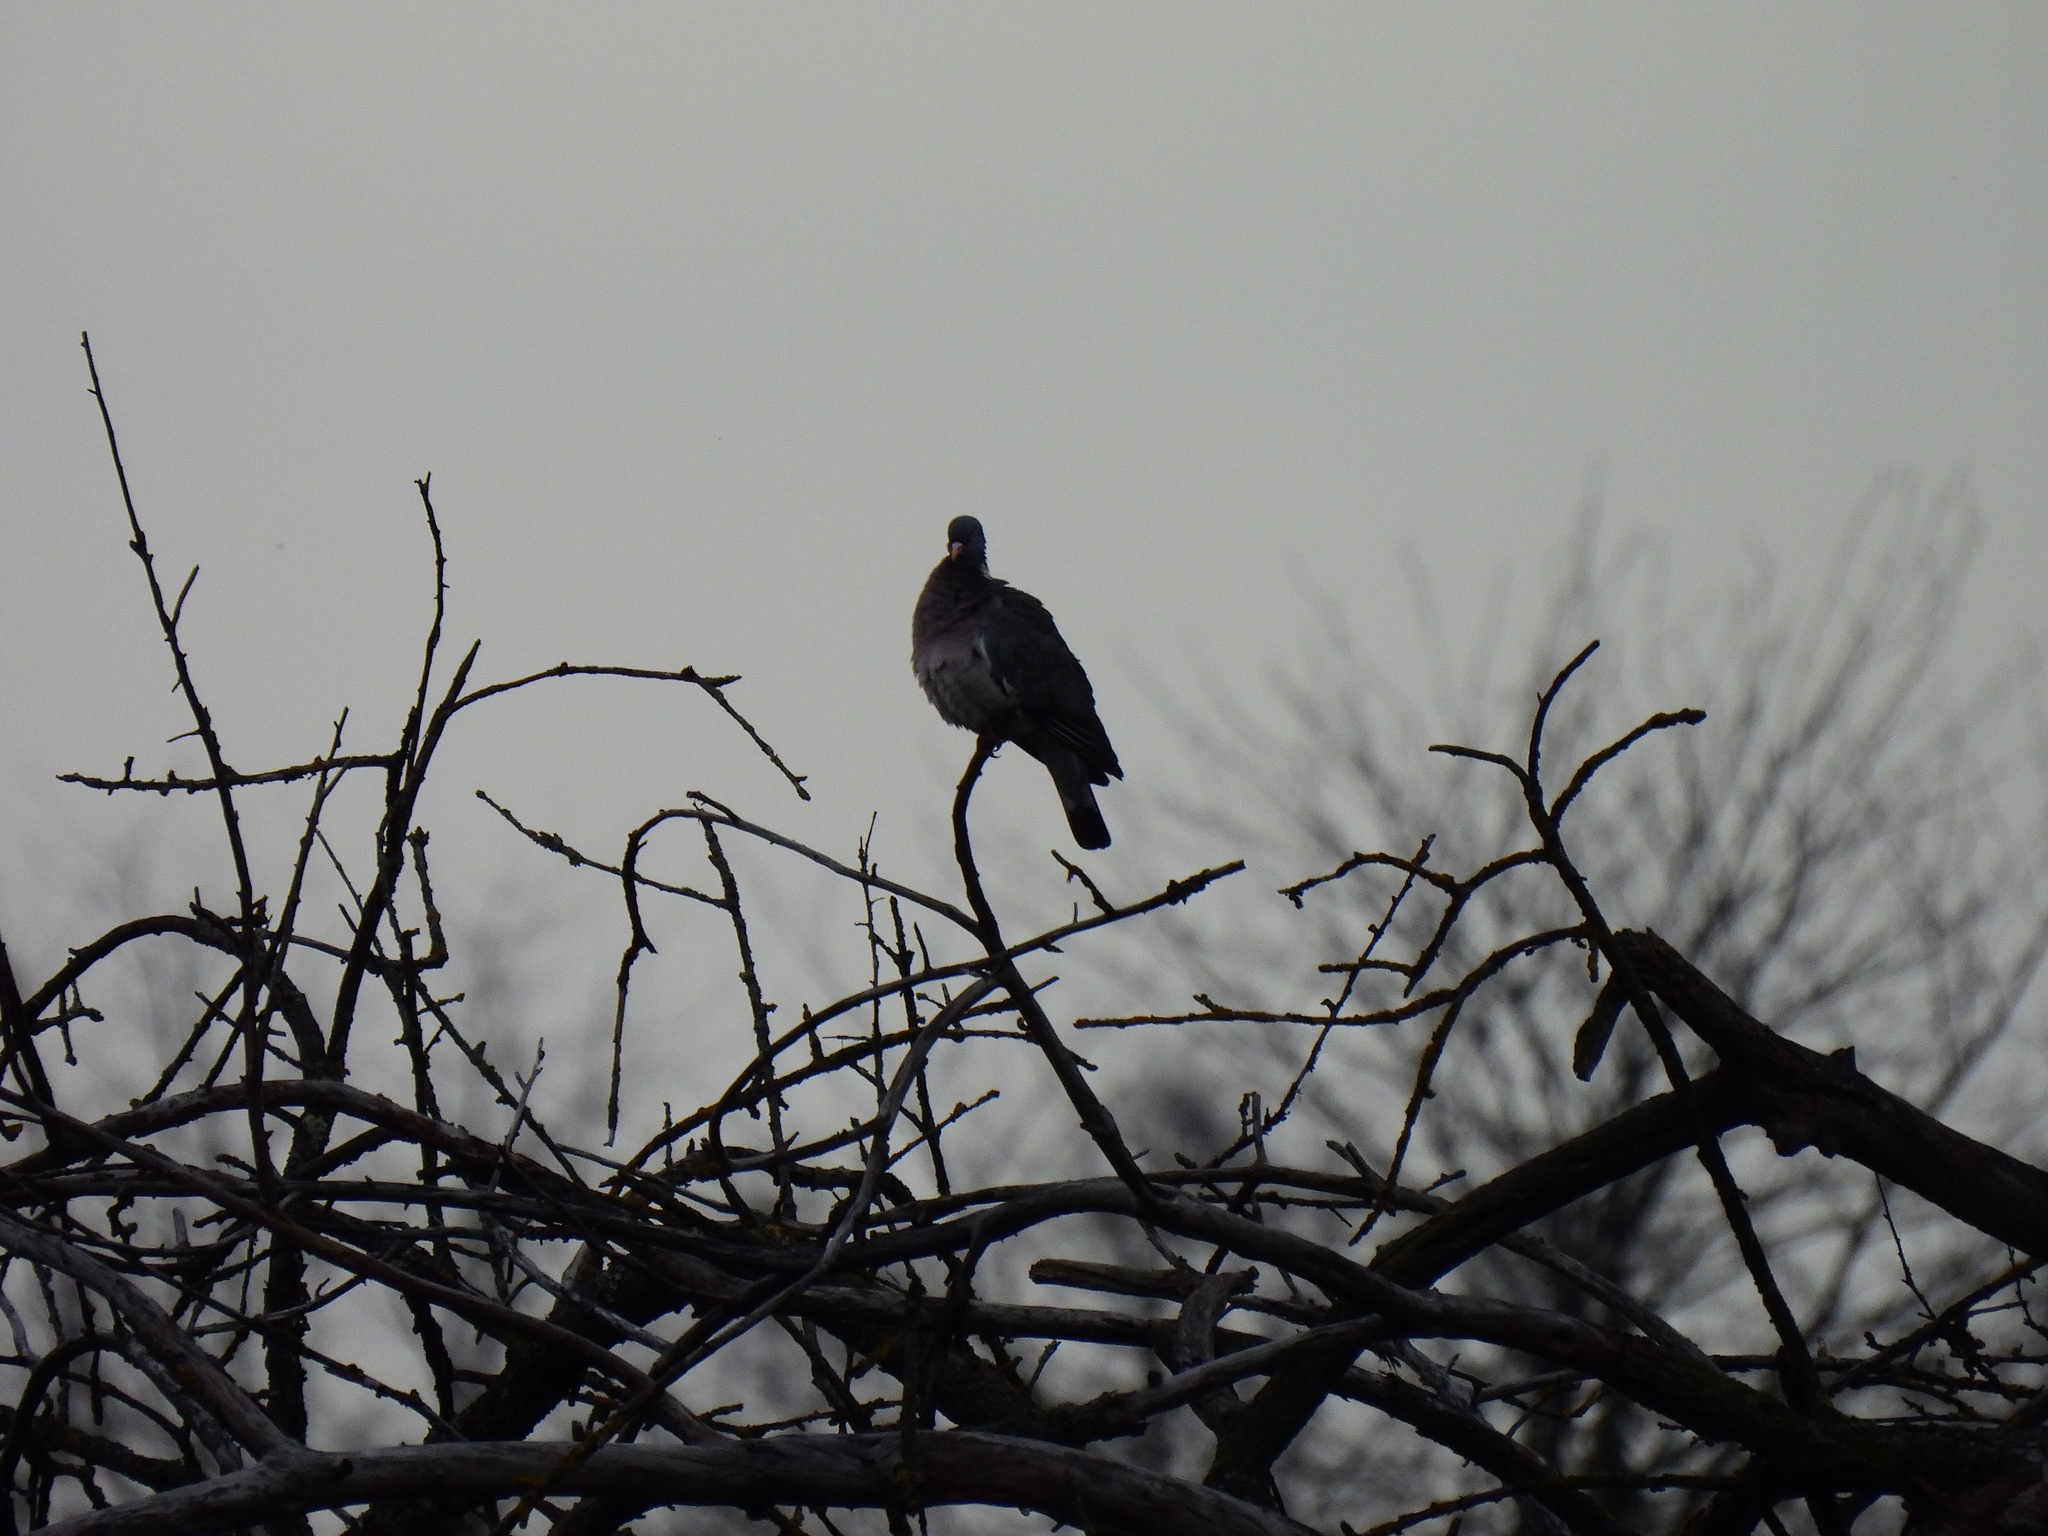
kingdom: Animalia
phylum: Chordata
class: Aves
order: Columbiformes
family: Columbidae
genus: Columba
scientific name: Columba palumbus
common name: Common wood pigeon
